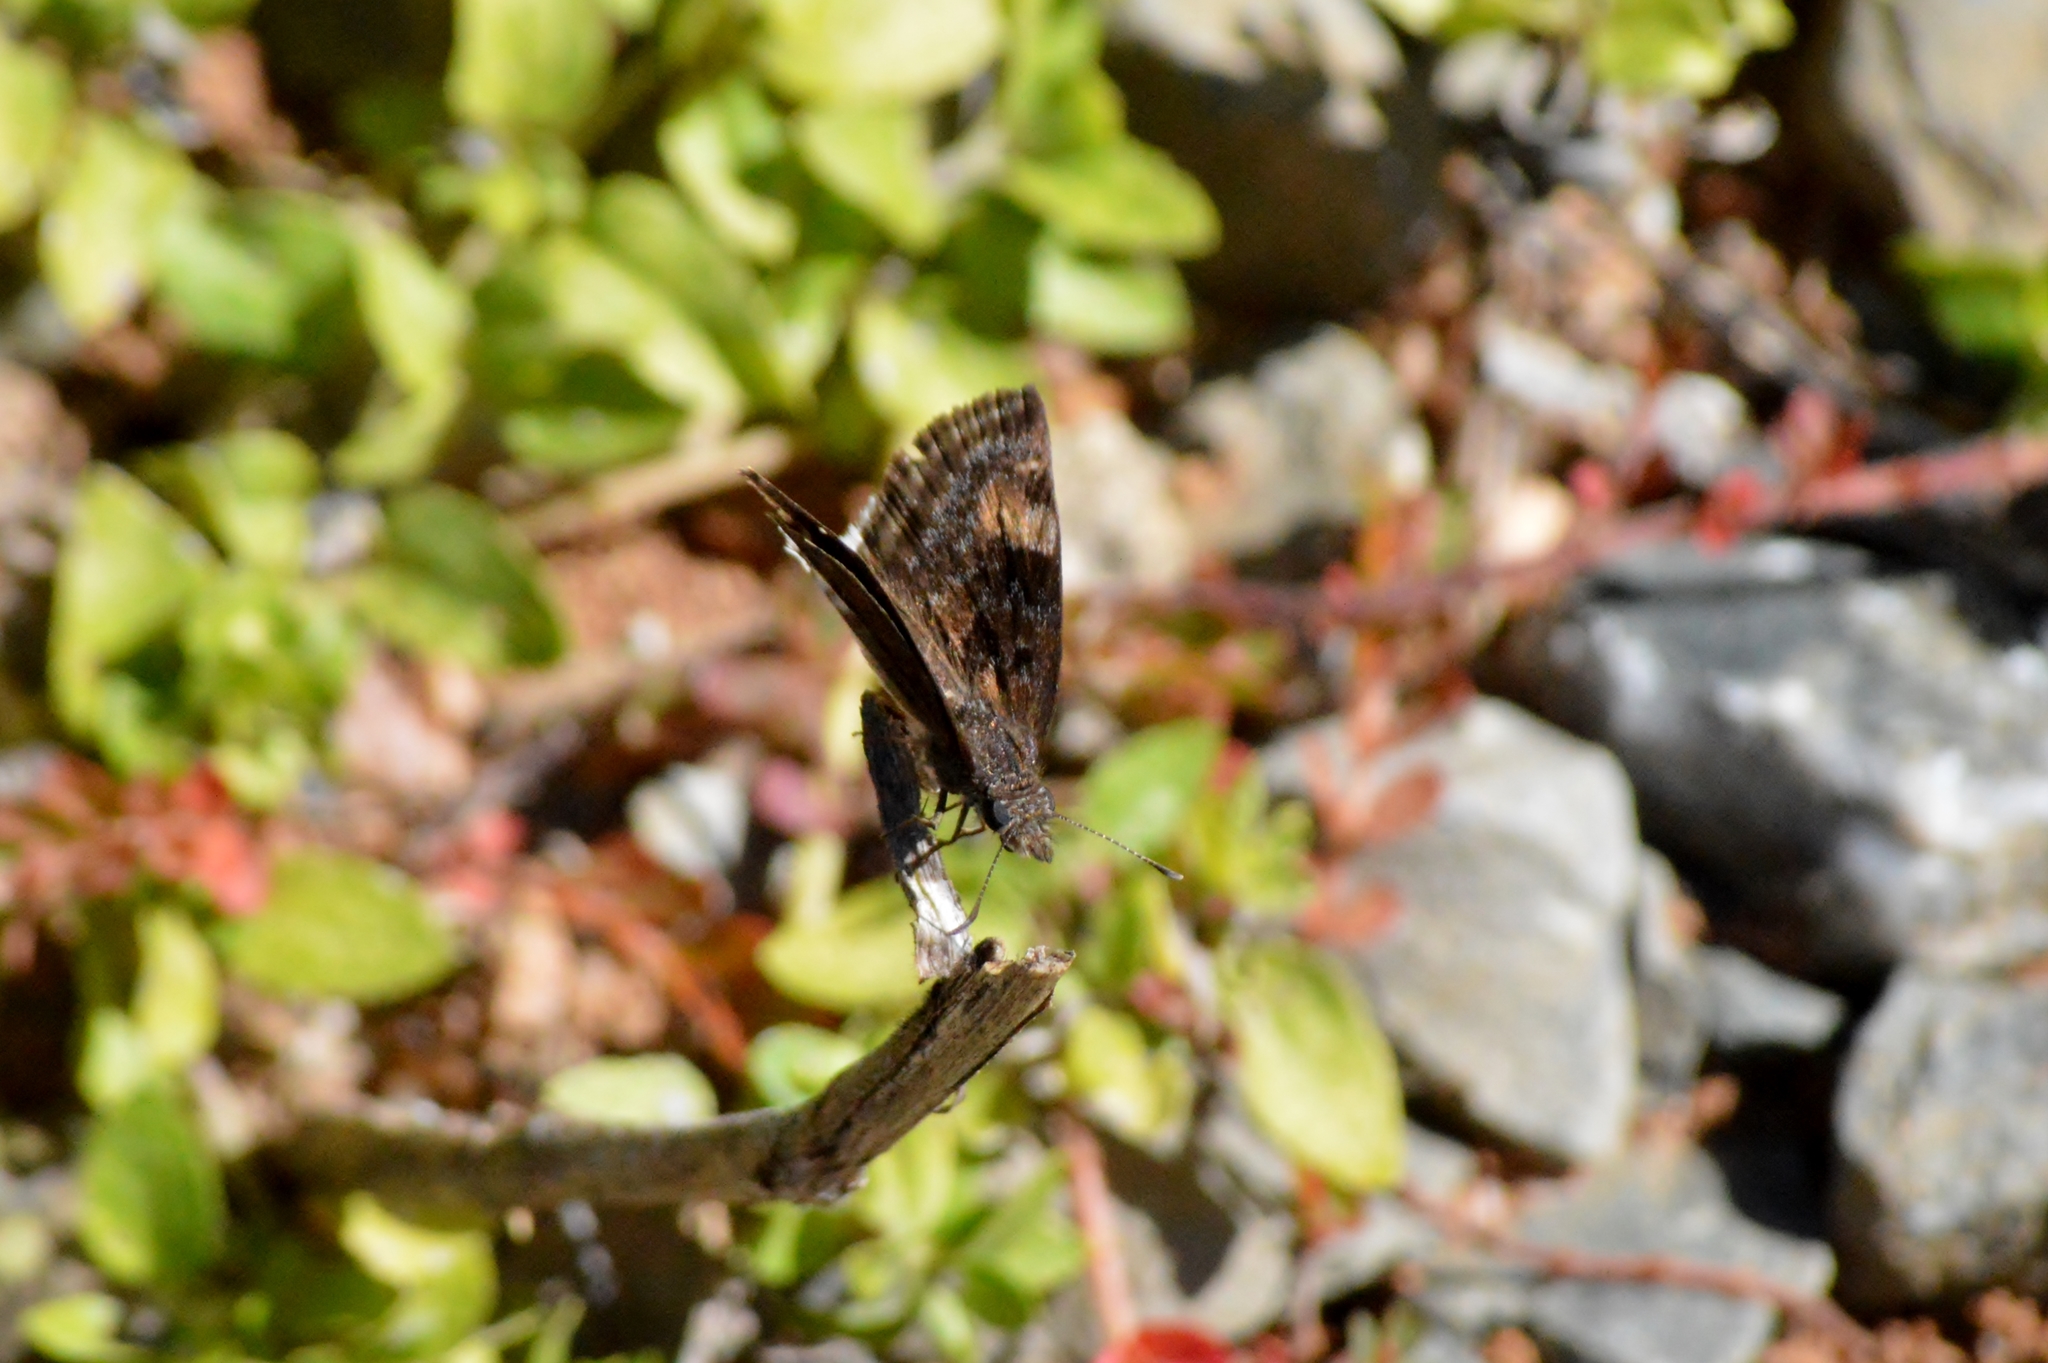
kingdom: Animalia
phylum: Arthropoda
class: Insecta
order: Lepidoptera
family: Hesperiidae
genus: Gesta
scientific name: Gesta gesta
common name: Gesta duskywing
